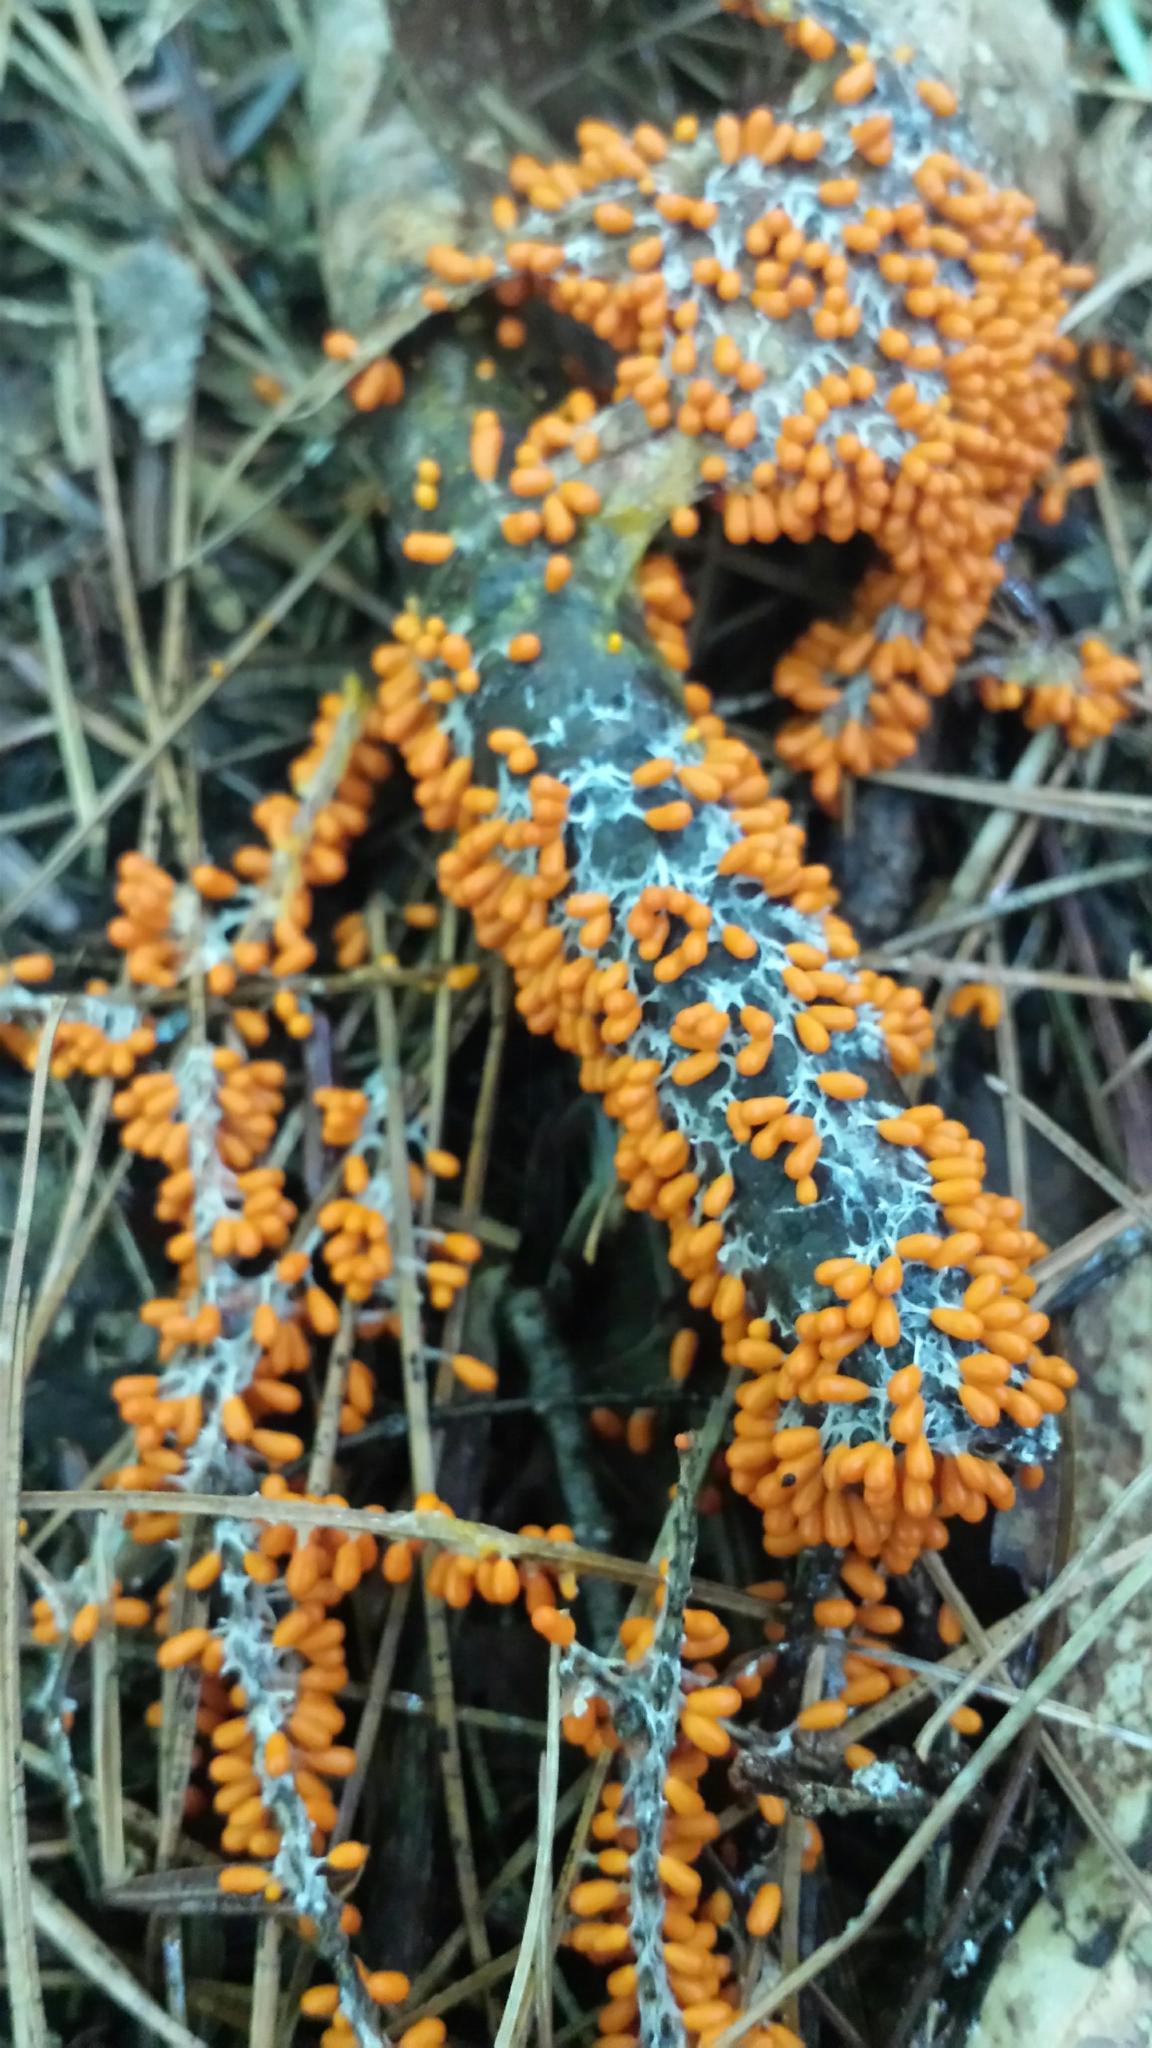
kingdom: Protozoa
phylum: Mycetozoa
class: Myxomycetes
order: Physarales
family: Physaraceae
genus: Leocarpus
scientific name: Leocarpus fragilis
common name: Insect-egg slime
